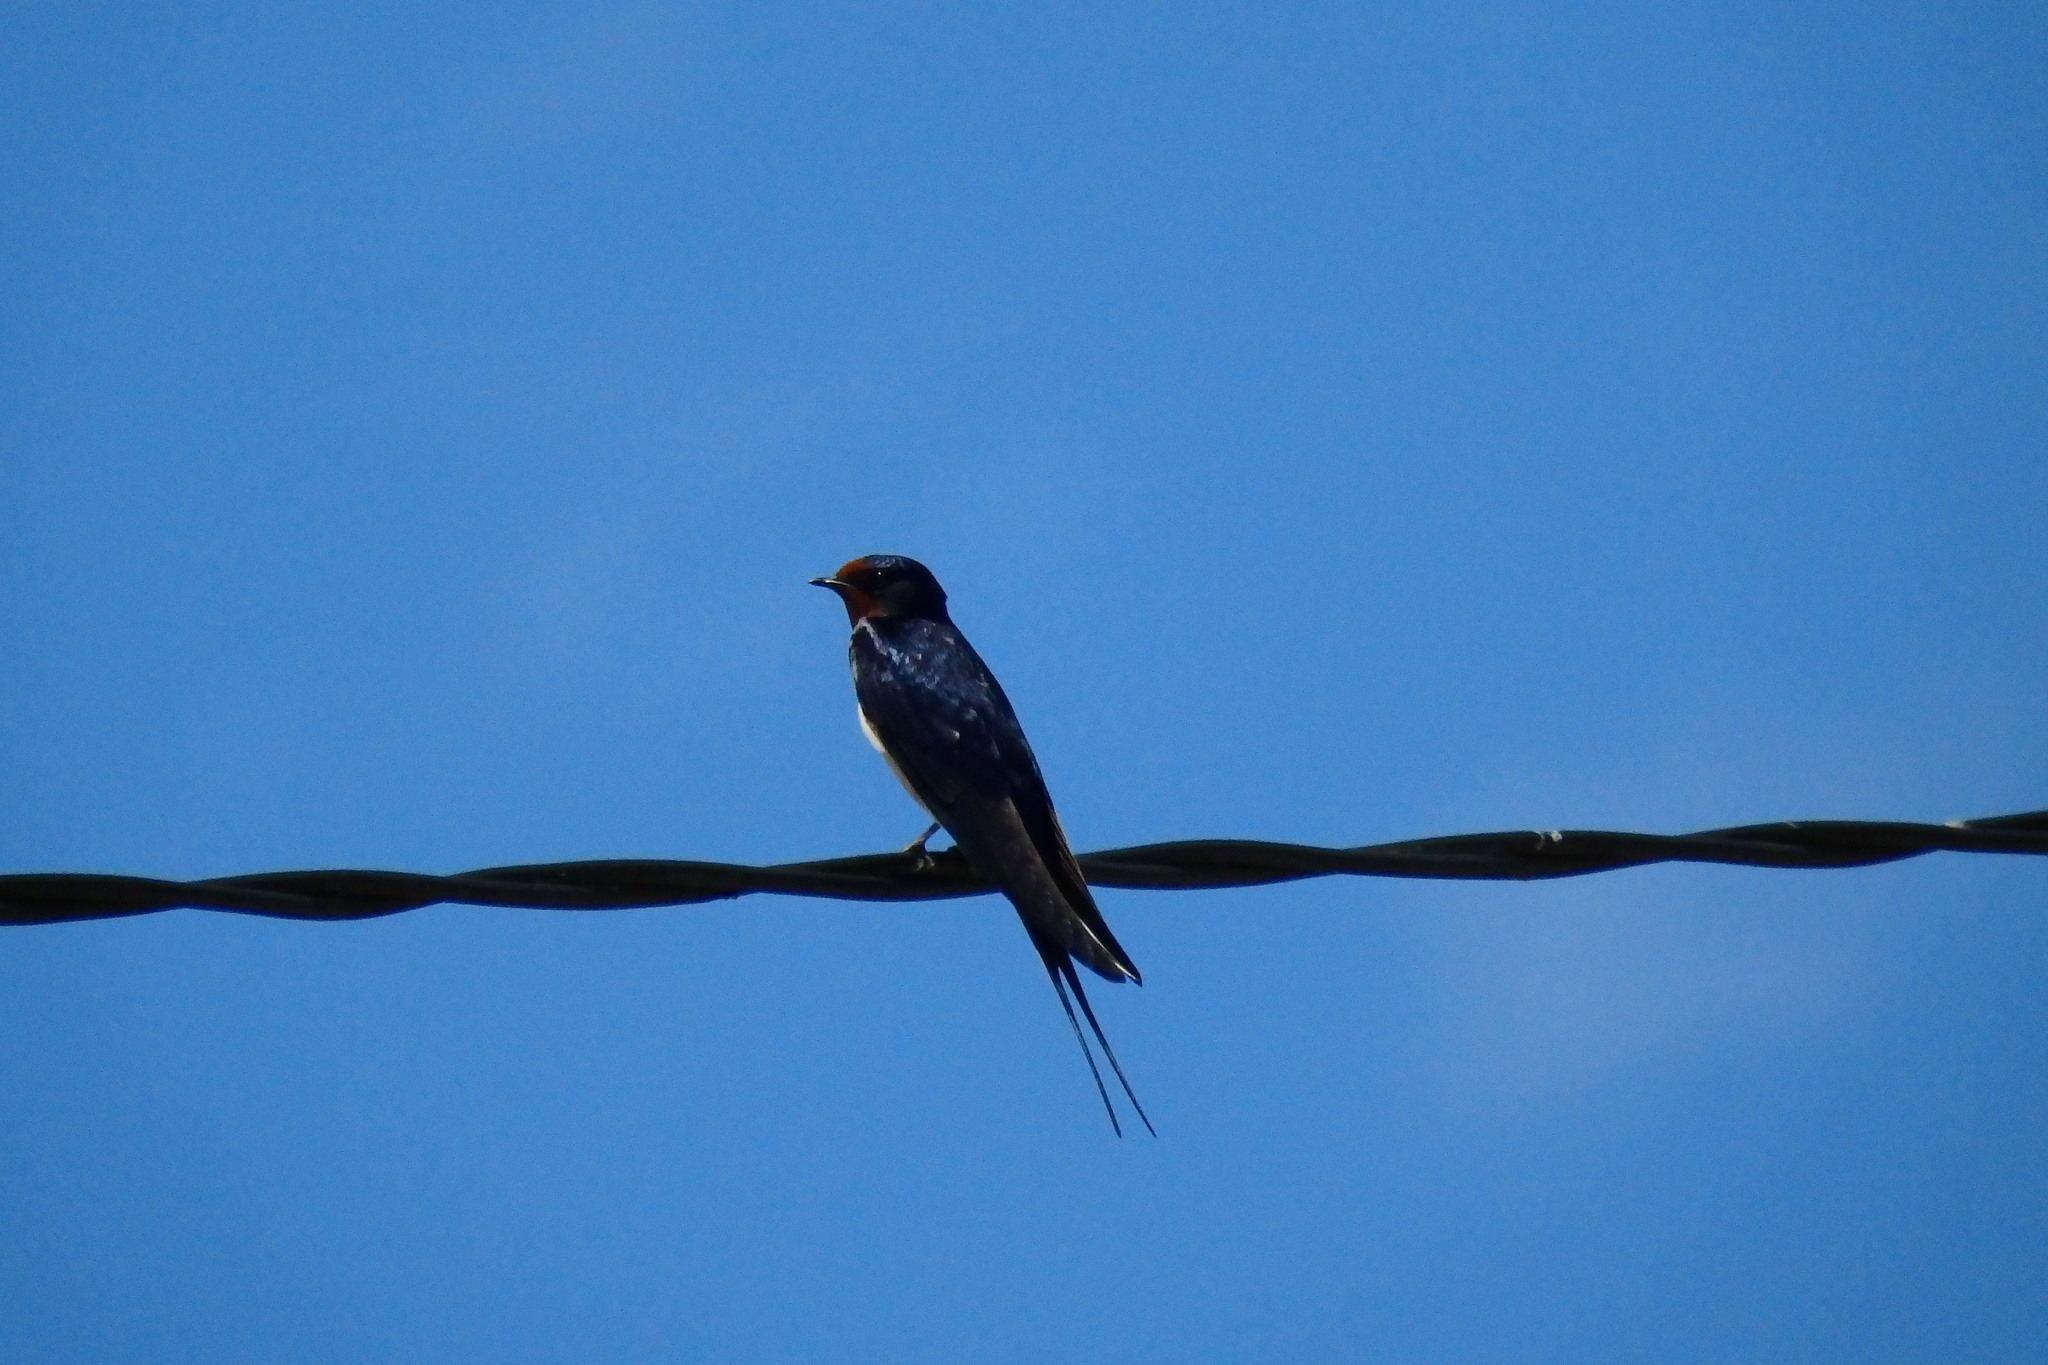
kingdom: Animalia
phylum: Chordata
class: Aves
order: Passeriformes
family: Hirundinidae
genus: Hirundo
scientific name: Hirundo rustica
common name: Barn swallow
